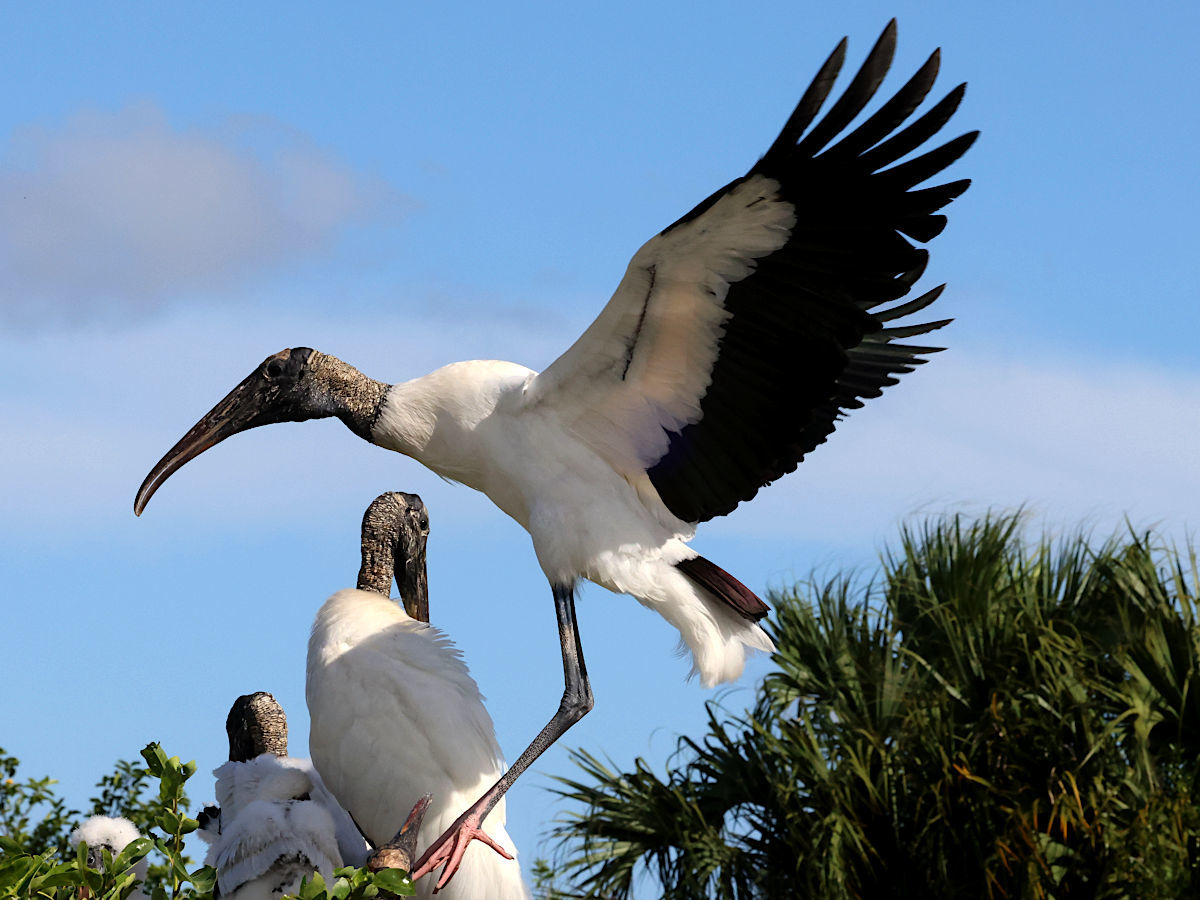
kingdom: Animalia
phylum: Chordata
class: Aves
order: Ciconiiformes
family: Ciconiidae
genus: Mycteria
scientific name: Mycteria americana
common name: Wood stork
